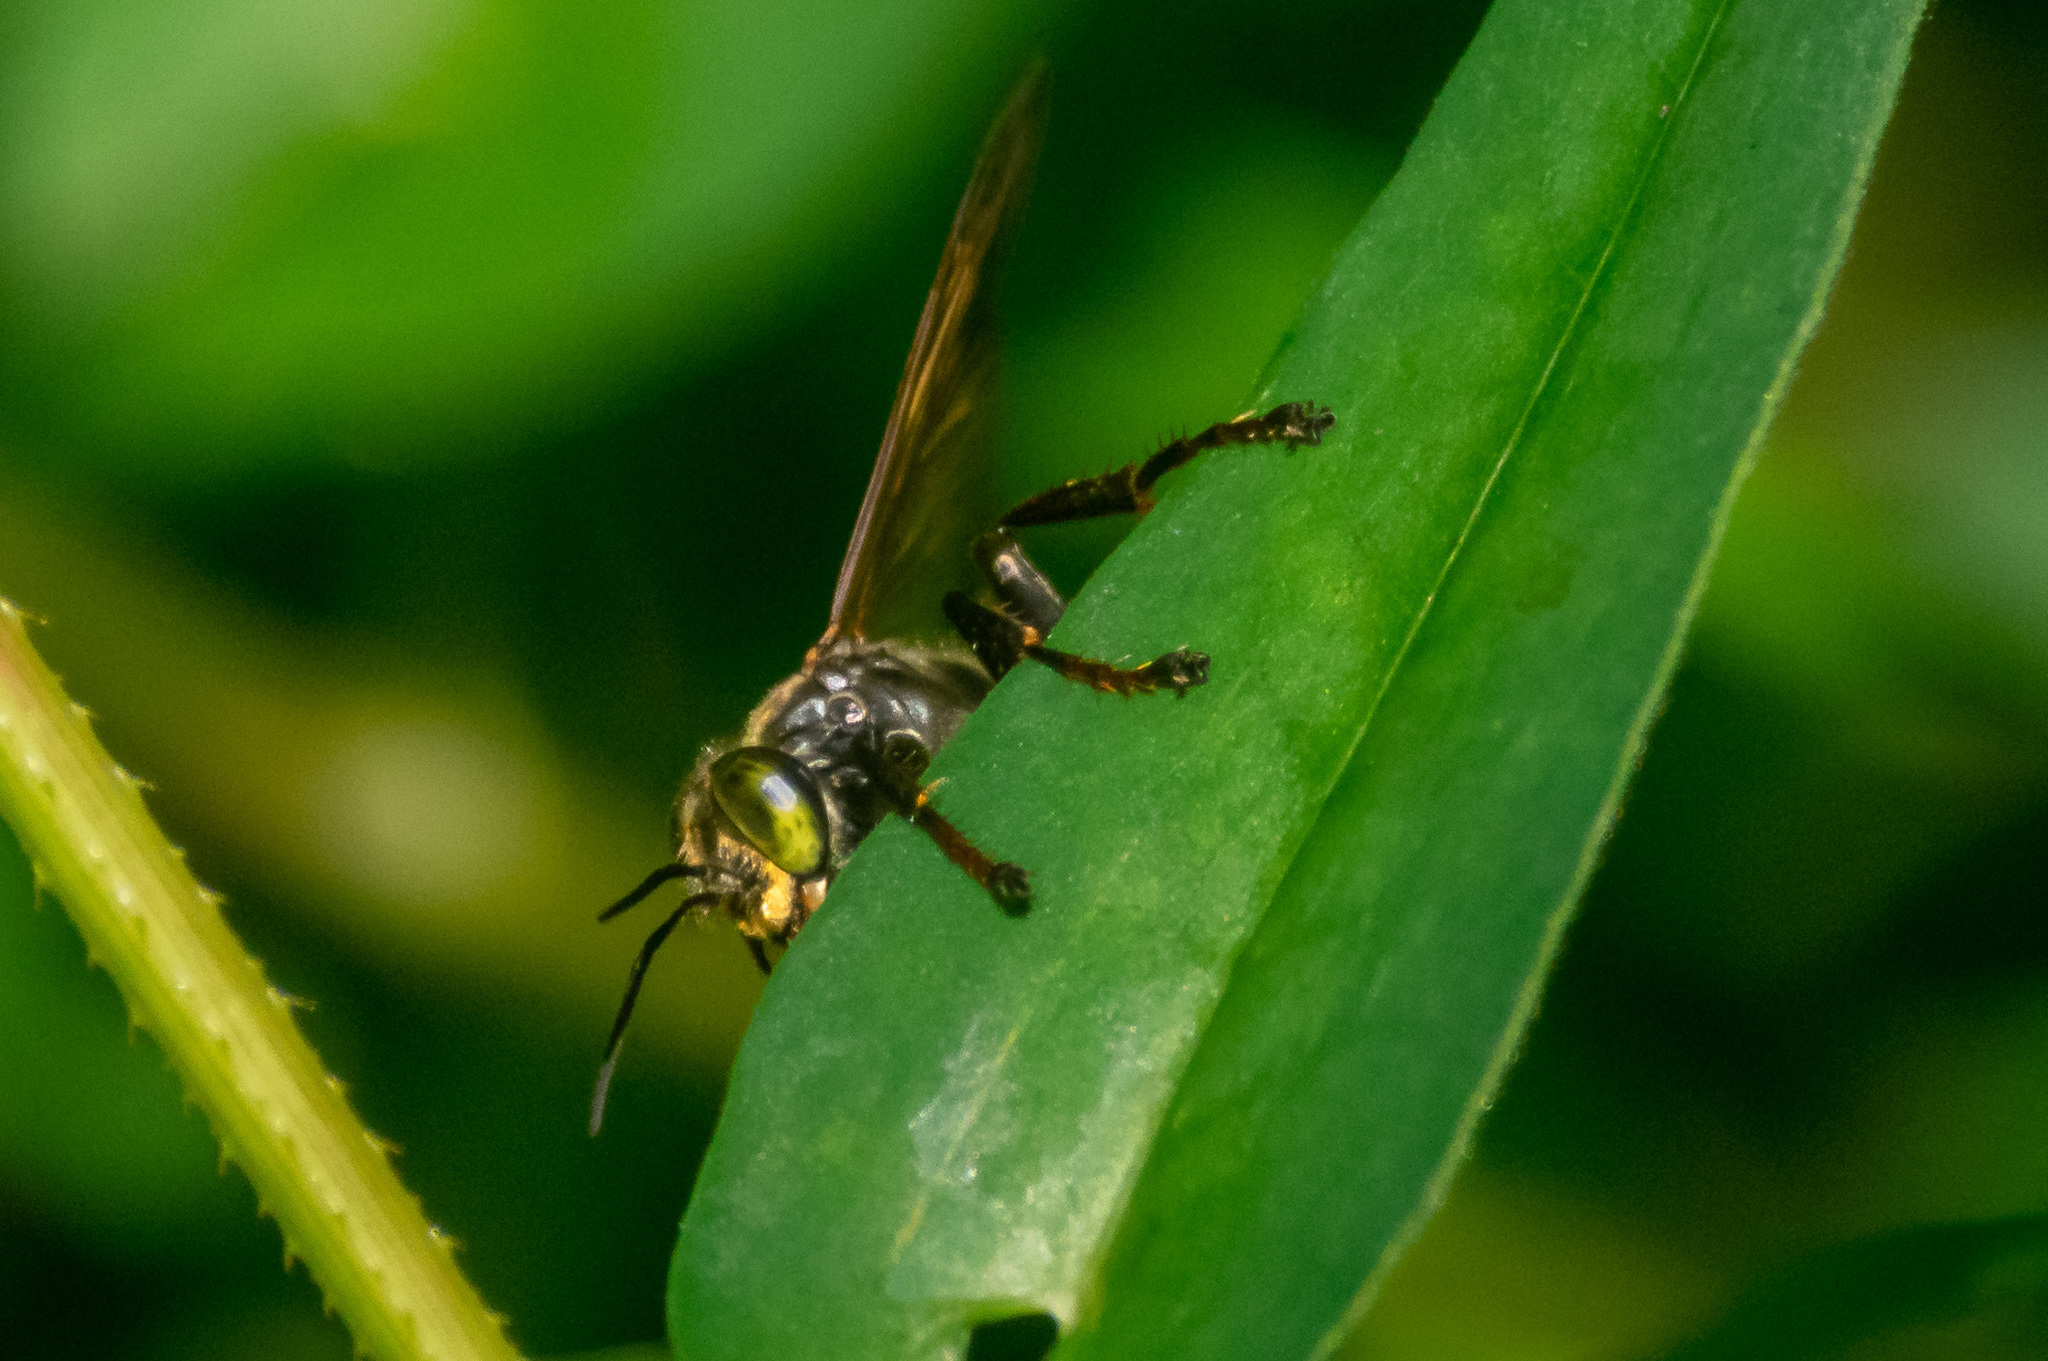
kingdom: Animalia
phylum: Arthropoda
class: Insecta
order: Hymenoptera
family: Crabronidae
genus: Tachytes
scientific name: Tachytes guatemalensis
